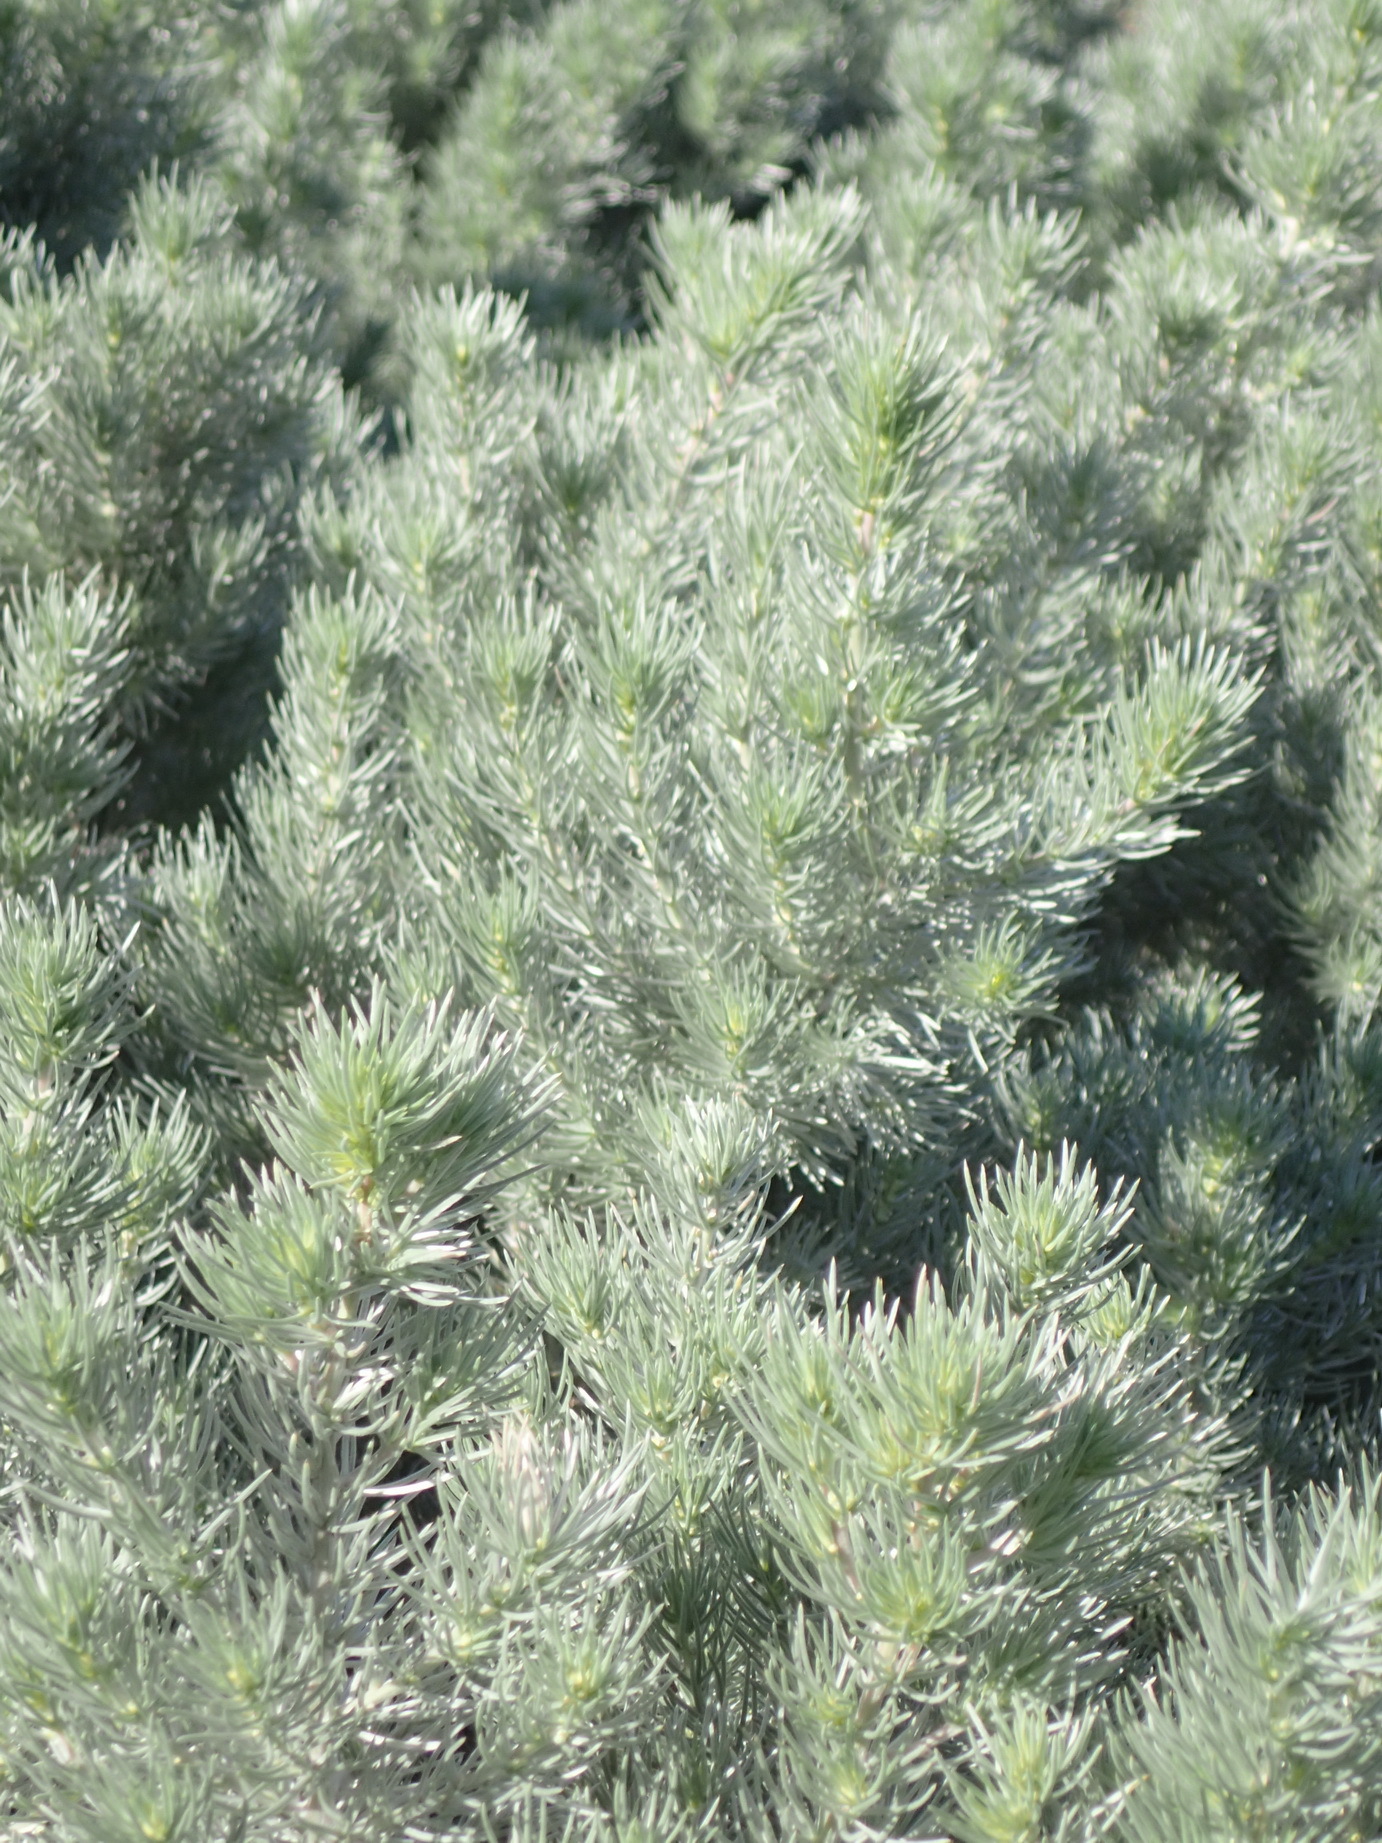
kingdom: Plantae
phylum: Tracheophyta
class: Magnoliopsida
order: Fabales
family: Fabaceae
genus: Aspalathus
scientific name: Aspalathus florifera
